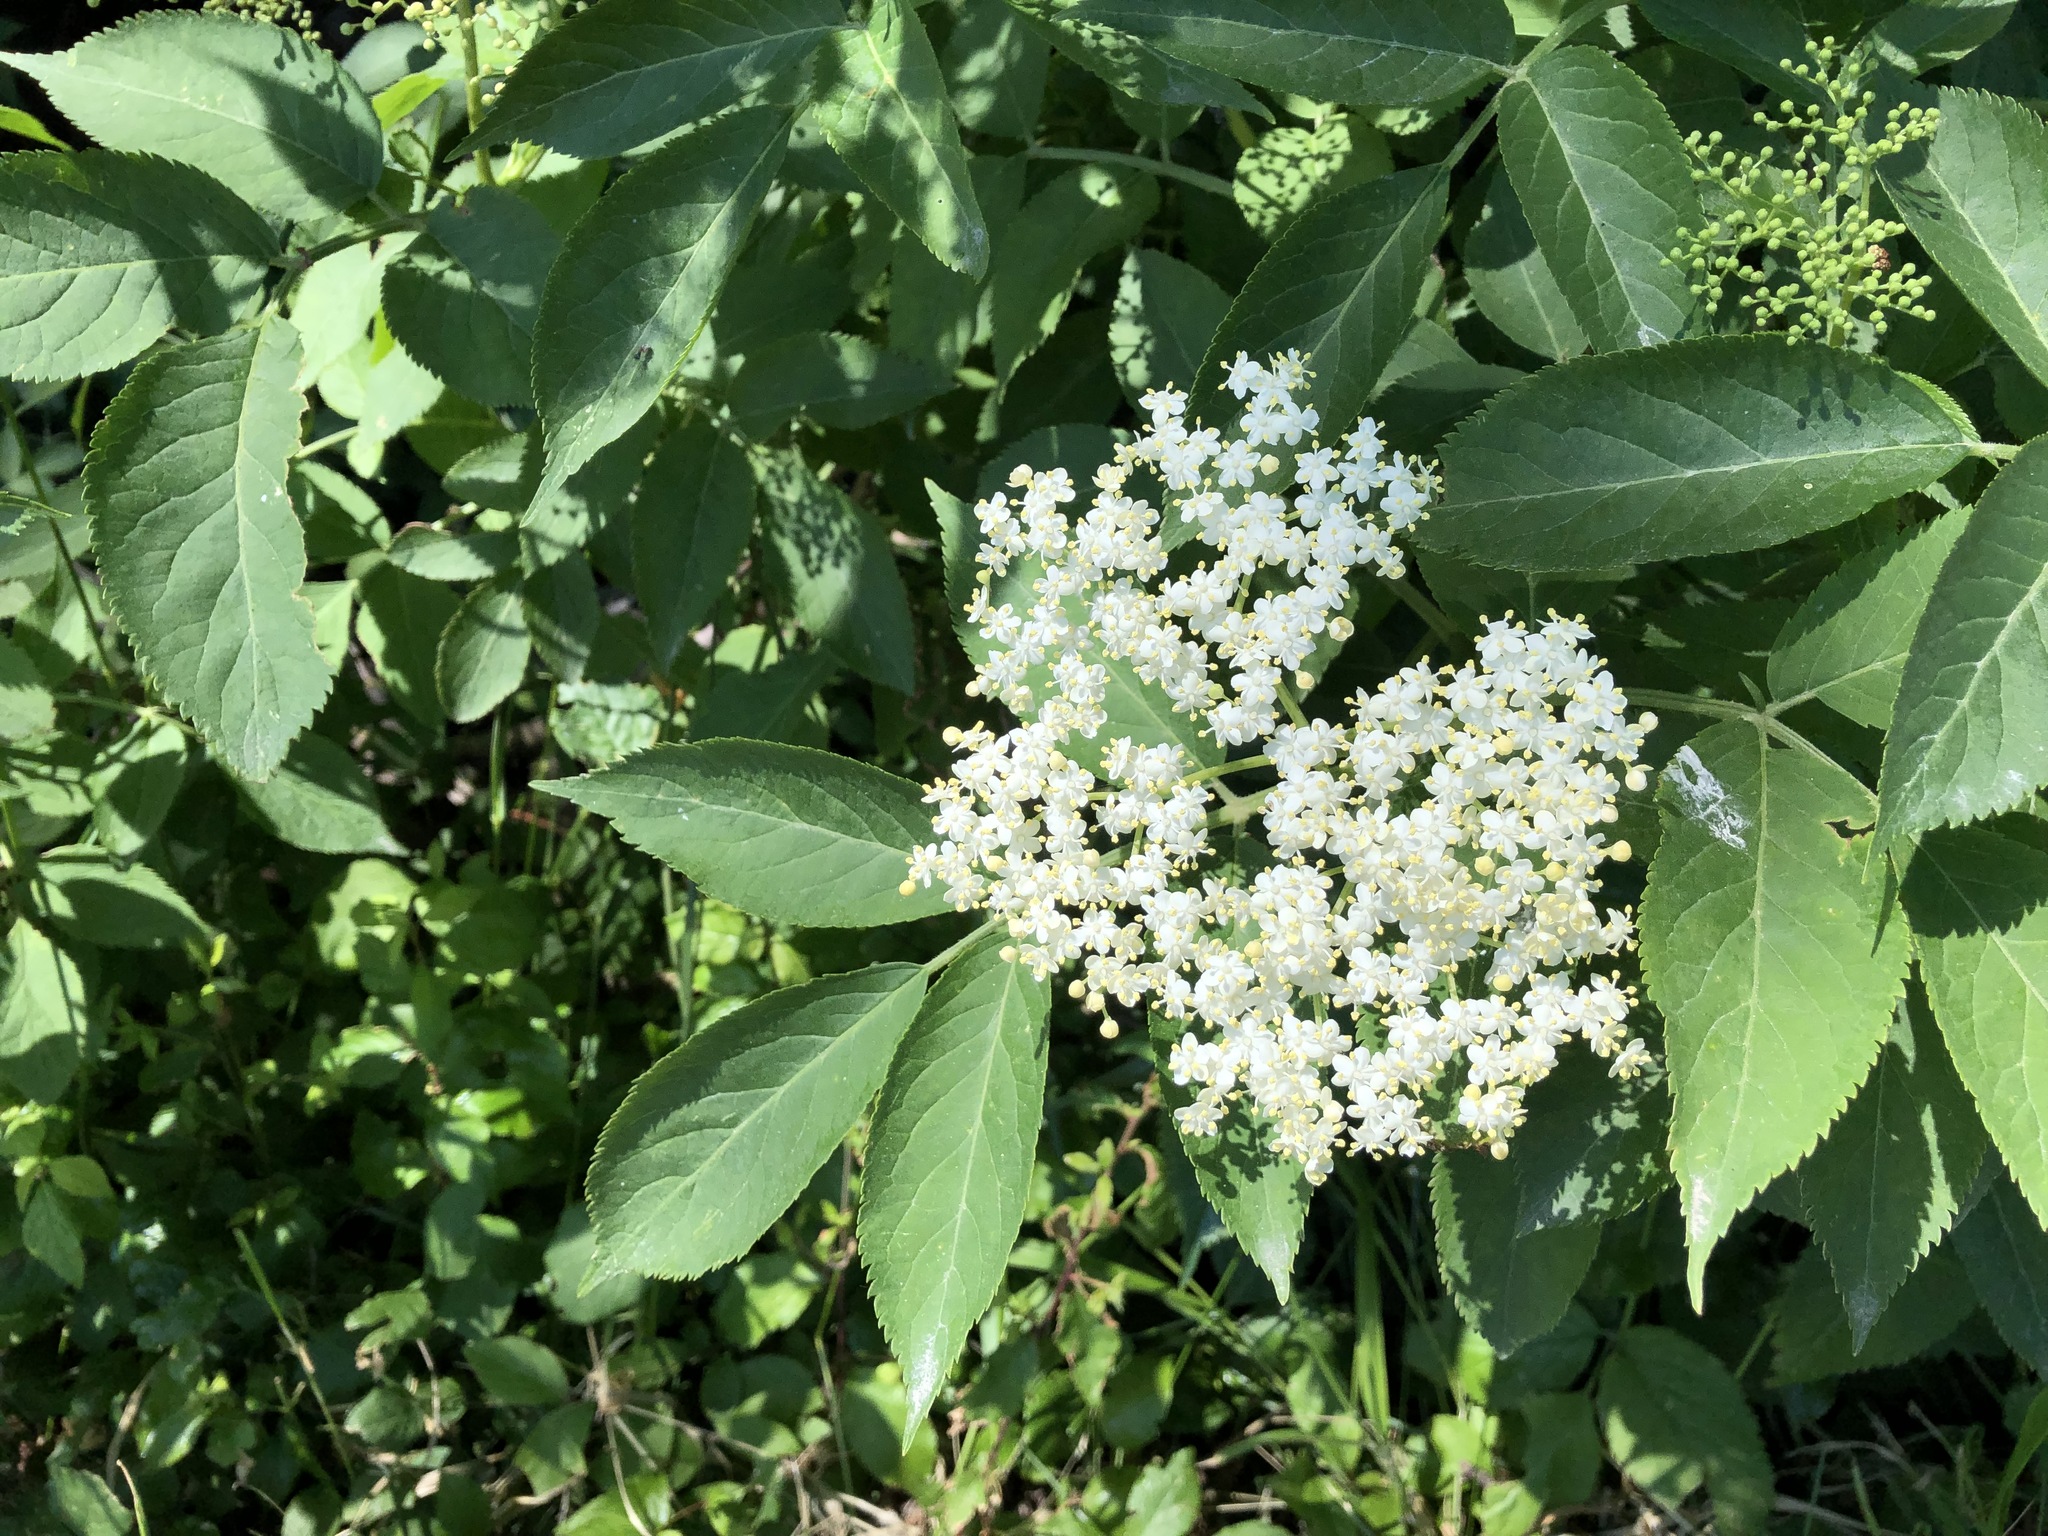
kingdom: Plantae
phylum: Tracheophyta
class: Magnoliopsida
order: Dipsacales
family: Viburnaceae
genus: Sambucus
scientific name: Sambucus nigra
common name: Elder
